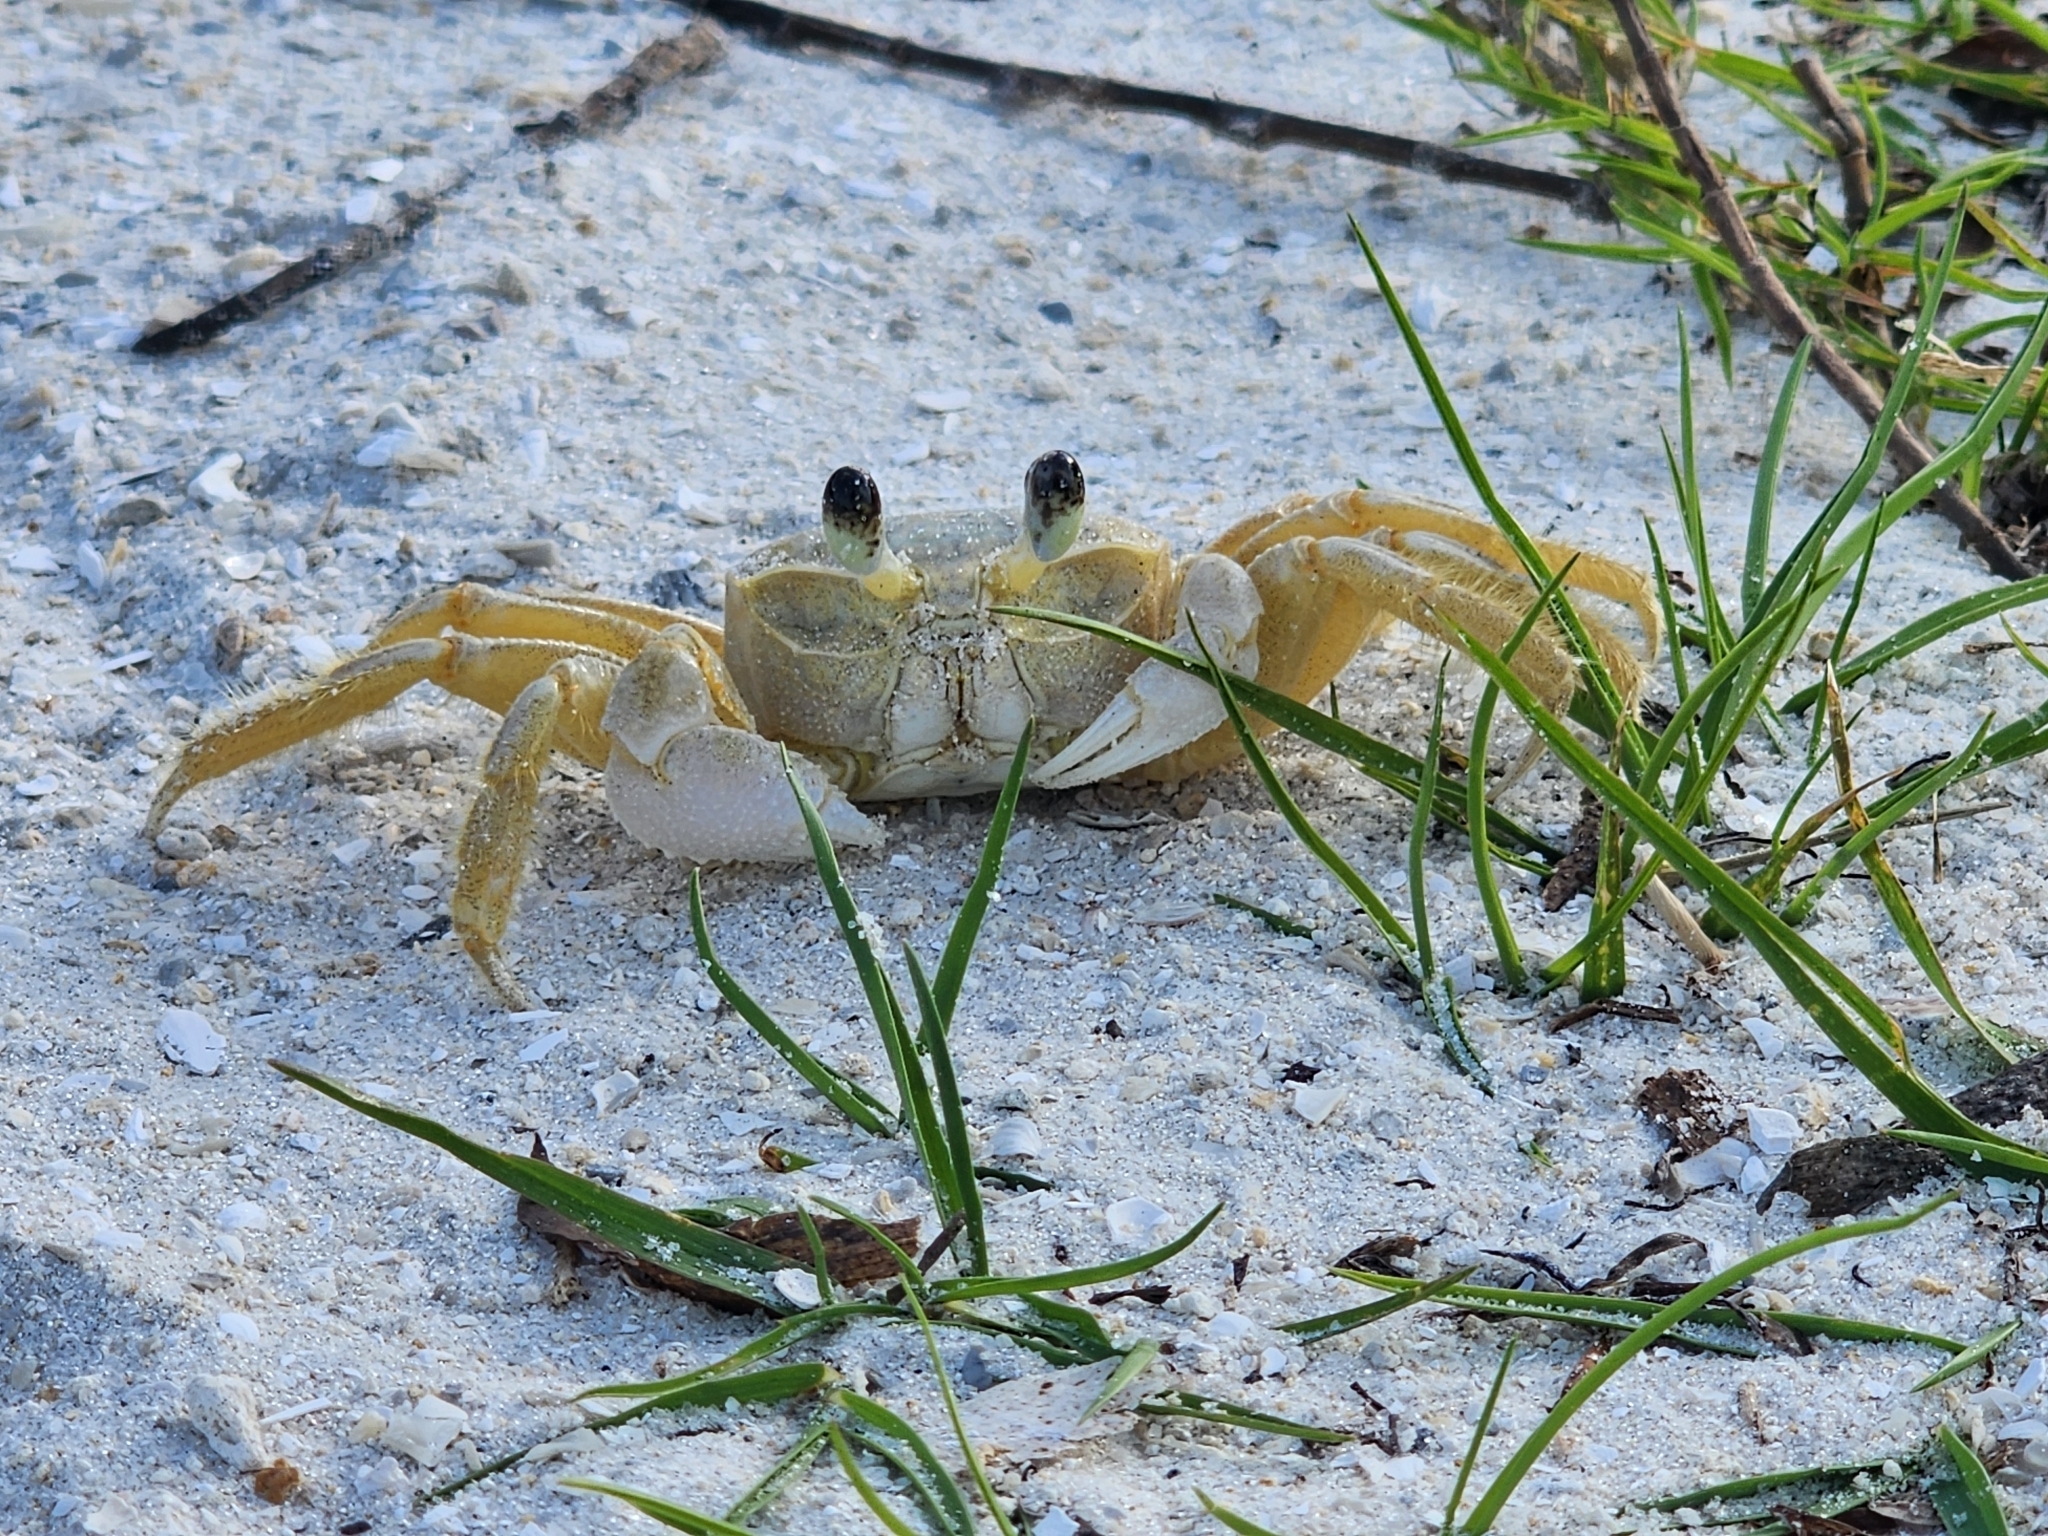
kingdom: Animalia
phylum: Arthropoda
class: Malacostraca
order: Decapoda
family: Ocypodidae
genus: Ocypode
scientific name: Ocypode quadrata
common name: Ghost crab
